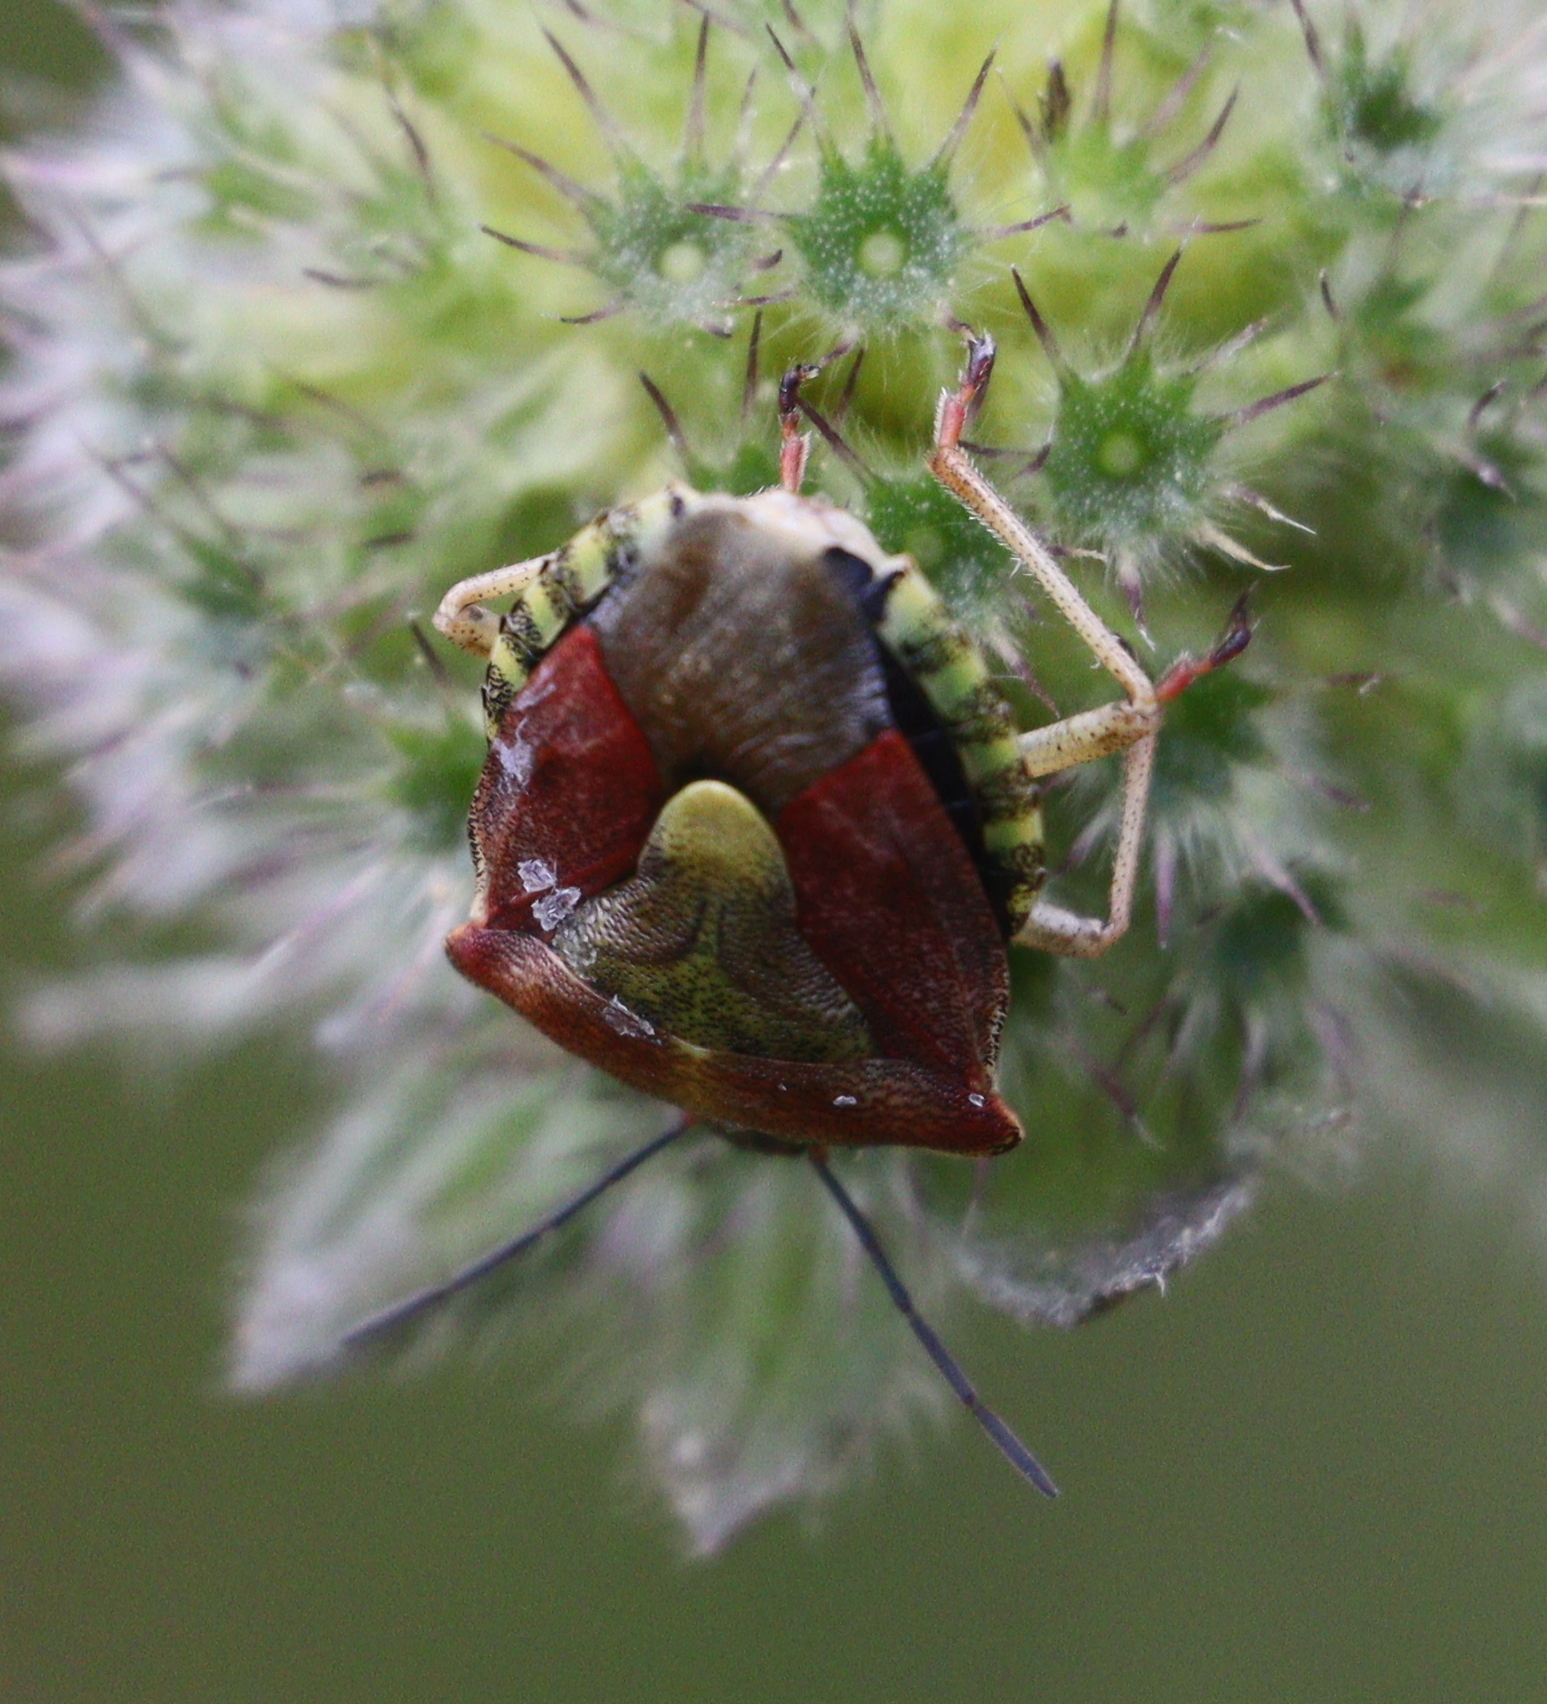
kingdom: Animalia
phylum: Arthropoda
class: Insecta
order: Hemiptera
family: Pentatomidae
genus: Carpocoris
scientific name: Carpocoris purpureipennis
